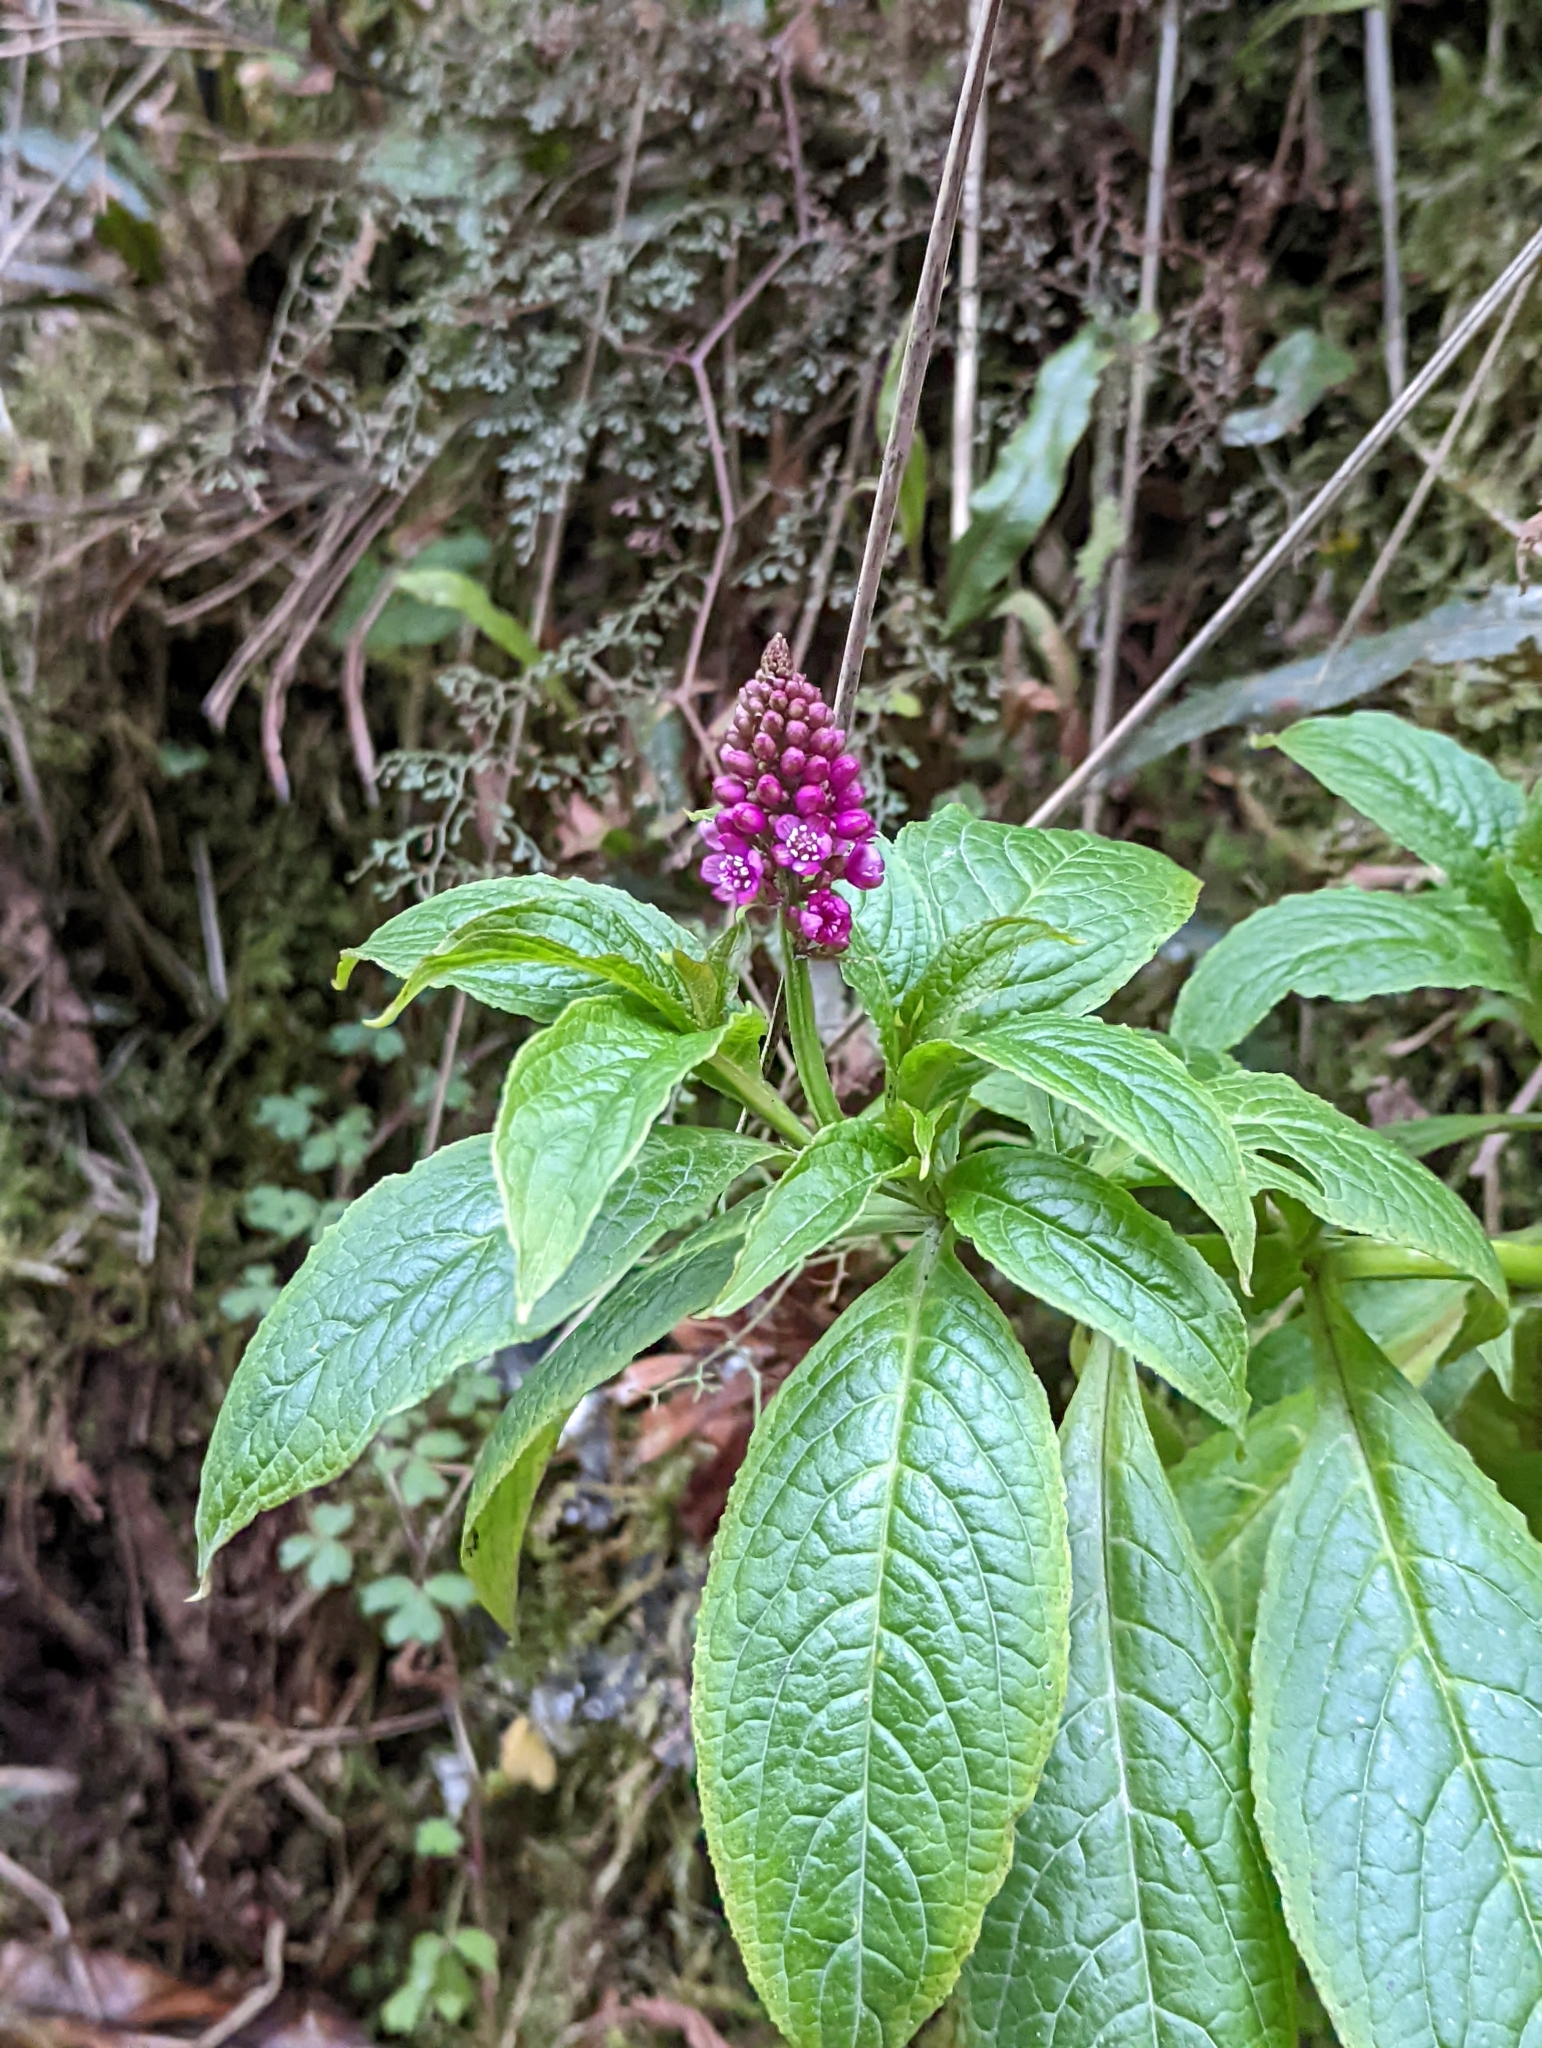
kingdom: Plantae
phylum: Tracheophyta
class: Magnoliopsida
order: Caryophyllales
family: Phytolaccaceae
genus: Phytolacca
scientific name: Phytolacca bogotensis
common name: Southern pokeweed
